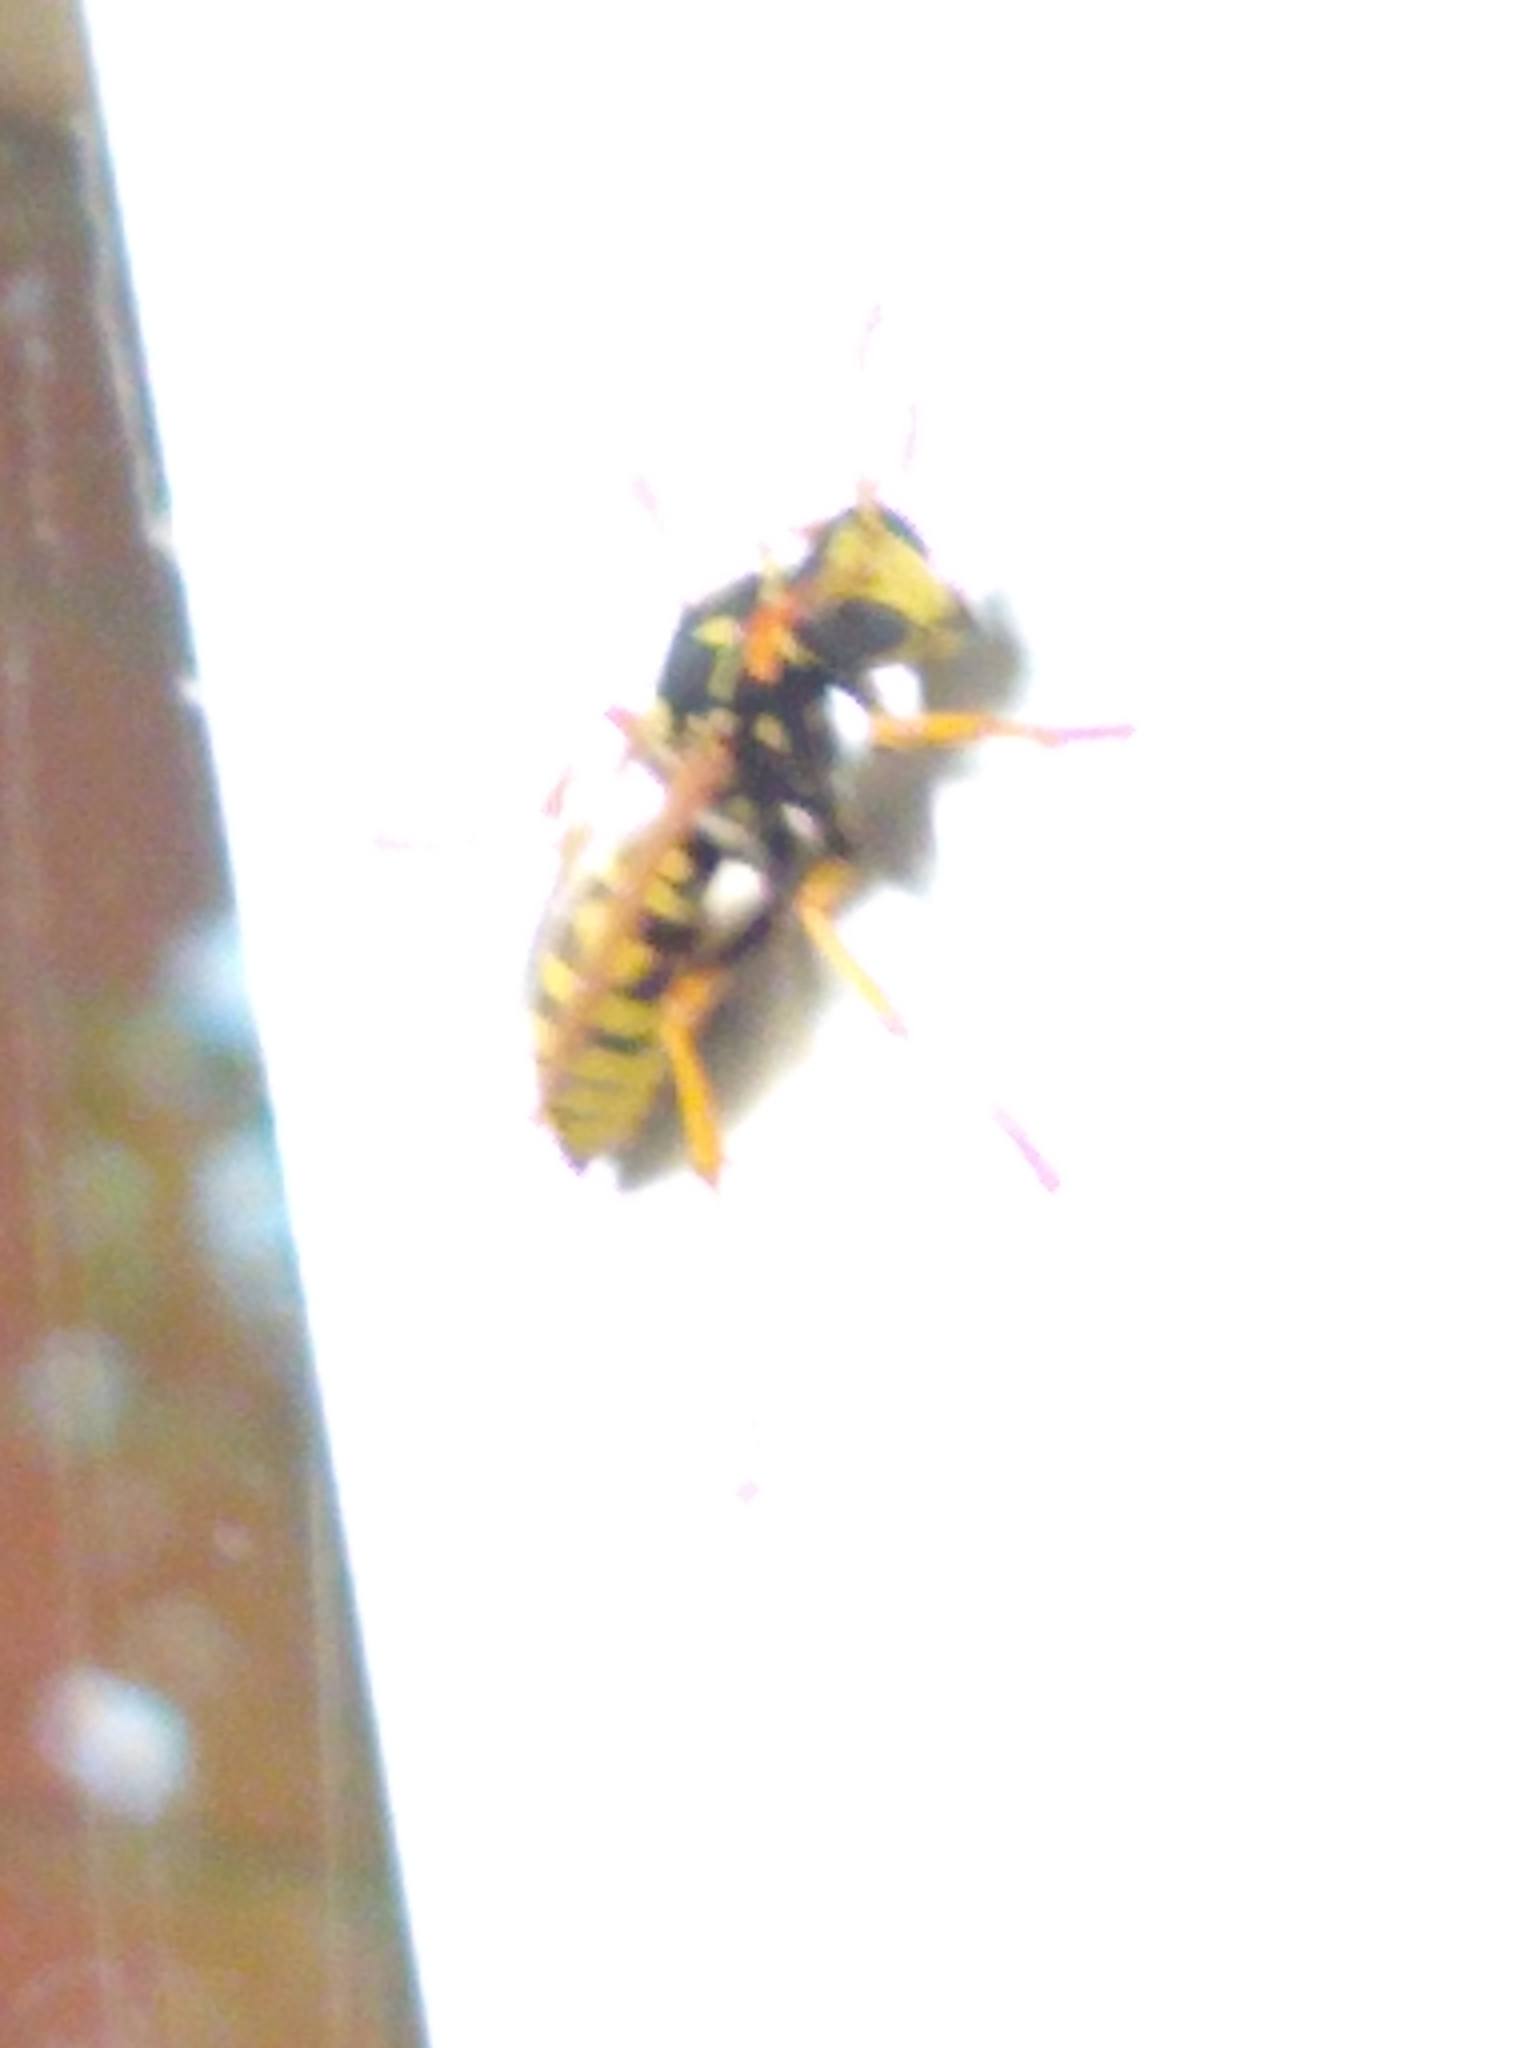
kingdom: Animalia
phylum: Arthropoda
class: Insecta
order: Hymenoptera
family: Eumenidae
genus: Polistes
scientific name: Polistes dominula
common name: Paper wasp
